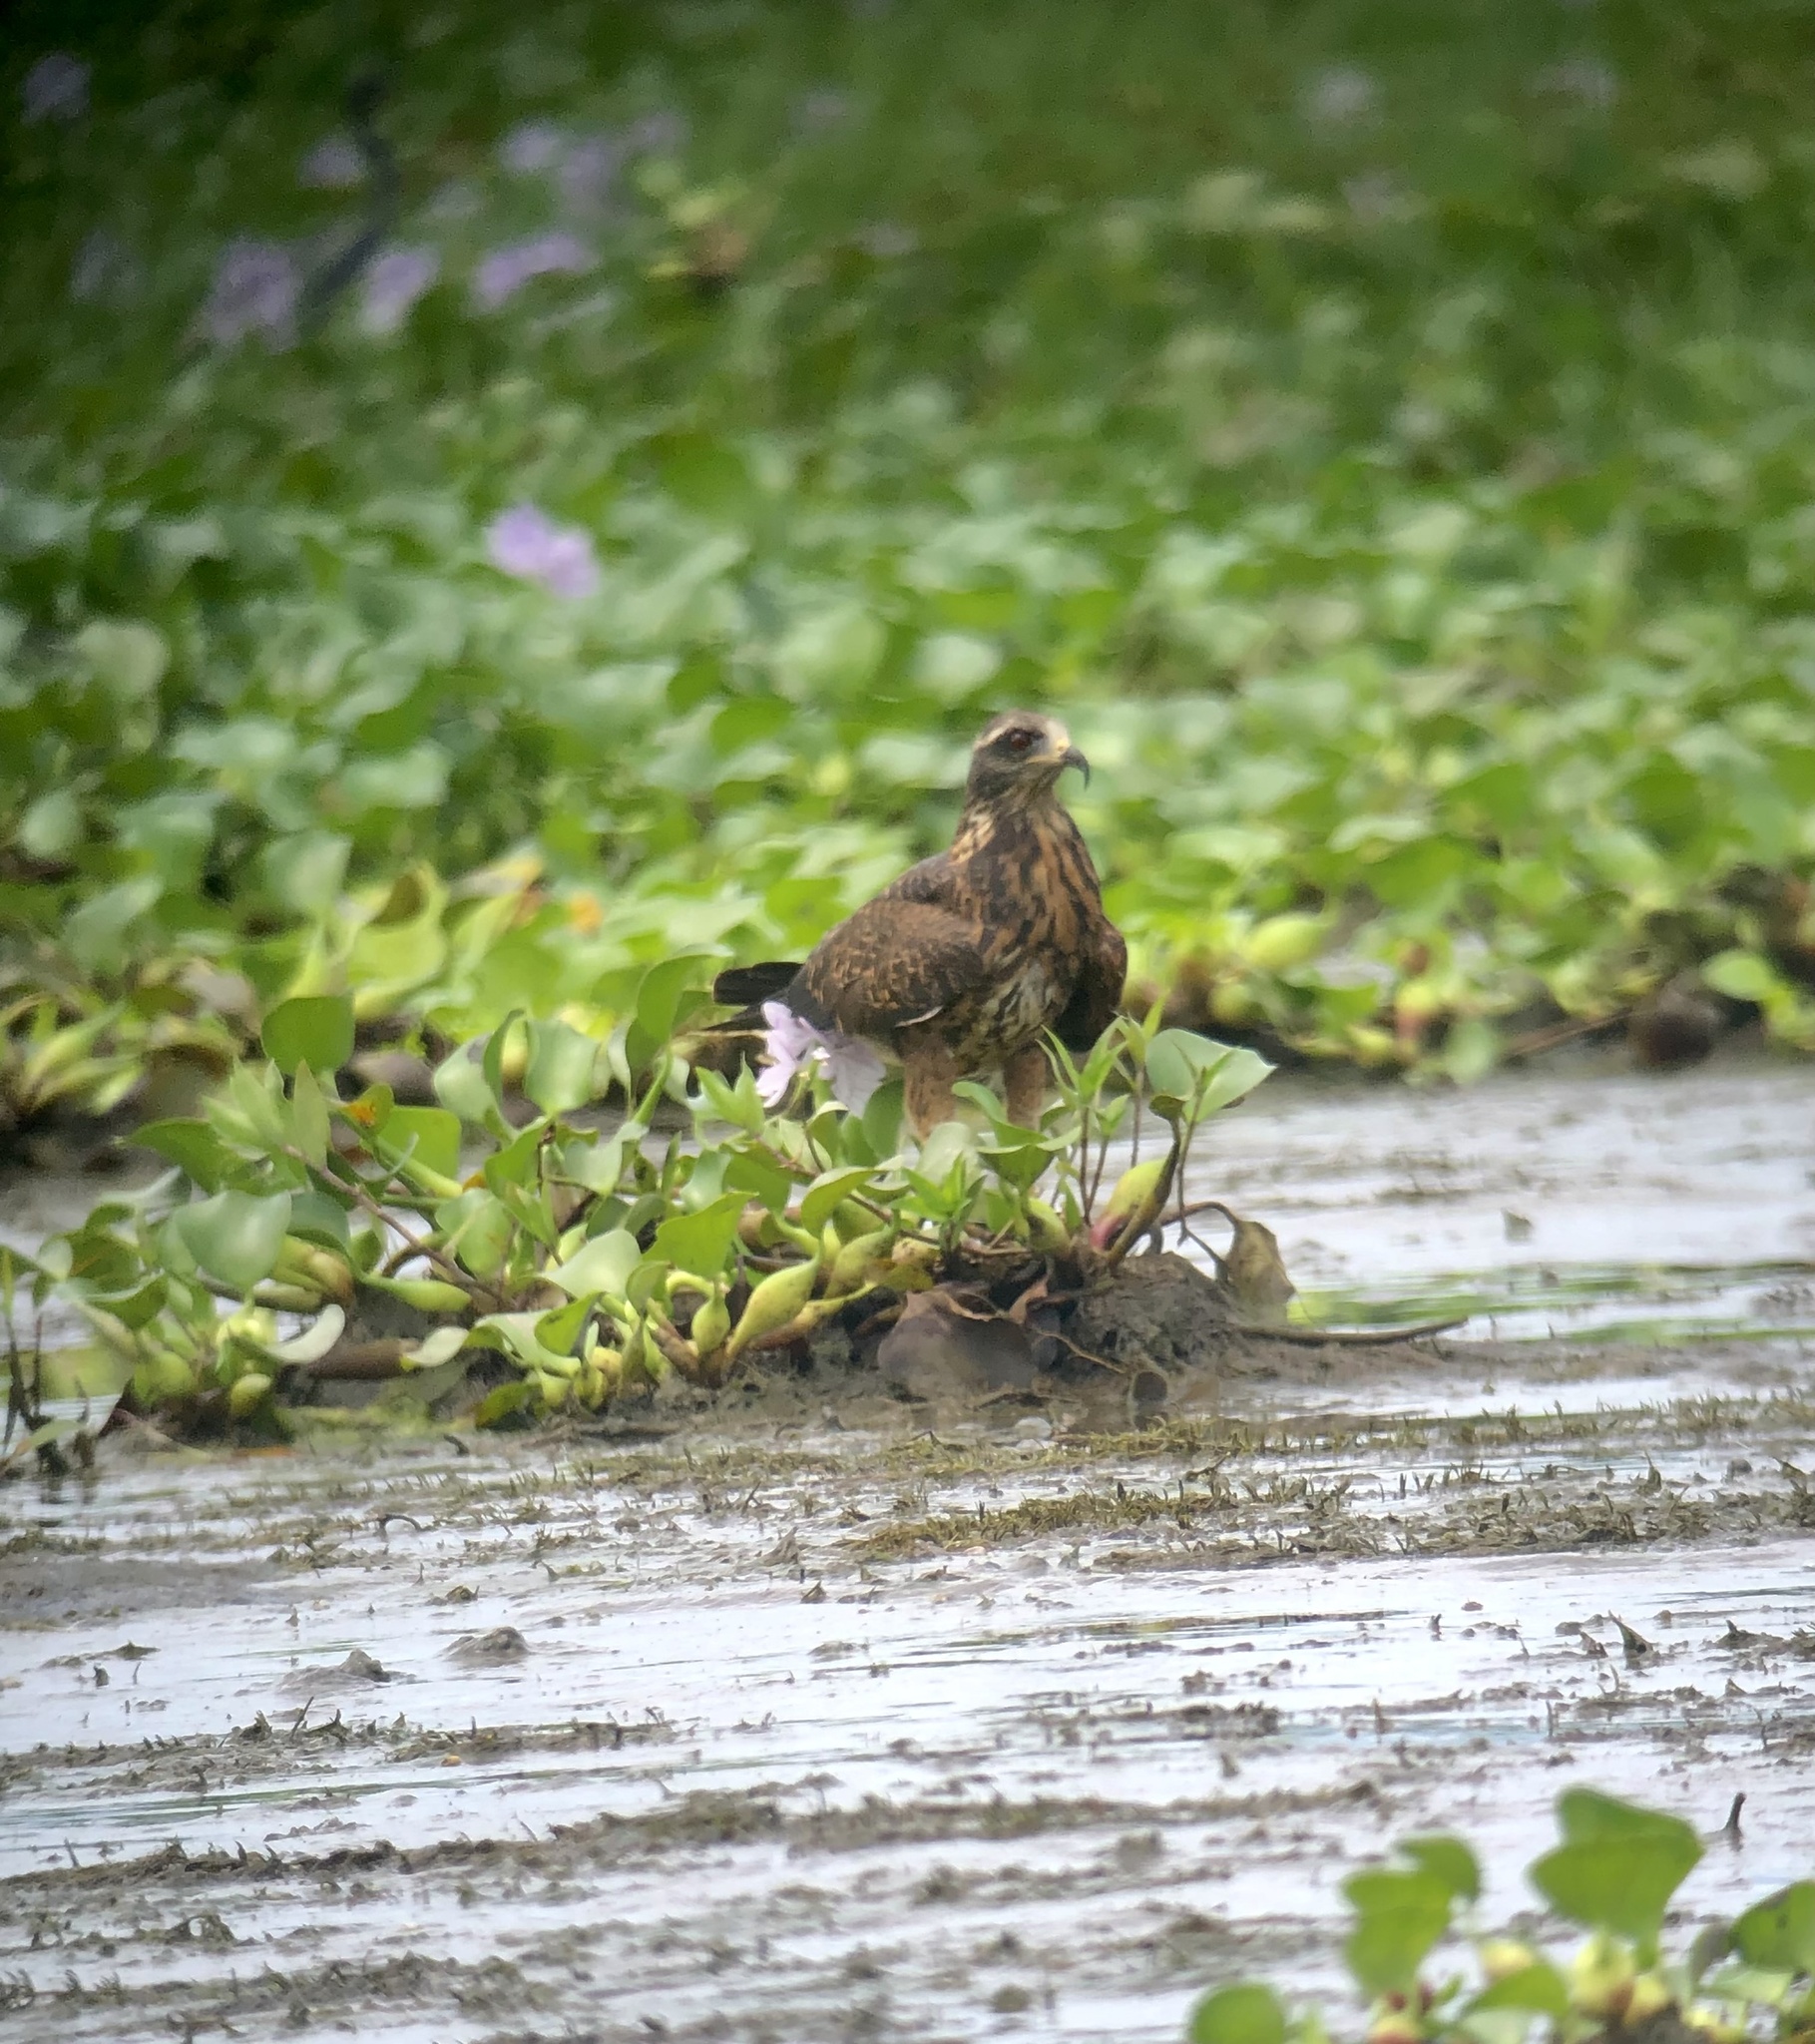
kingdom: Animalia
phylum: Chordata
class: Aves
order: Accipitriformes
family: Accipitridae
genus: Rostrhamus
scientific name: Rostrhamus sociabilis
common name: Snail kite
